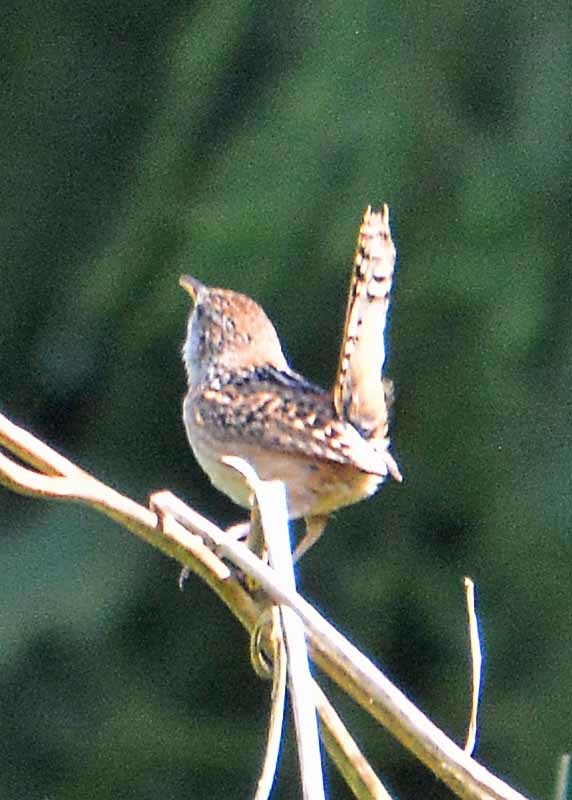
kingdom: Animalia
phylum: Chordata
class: Aves
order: Passeriformes
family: Troglodytidae
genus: Cistothorus
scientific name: Cistothorus platensis
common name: Sedge wren
